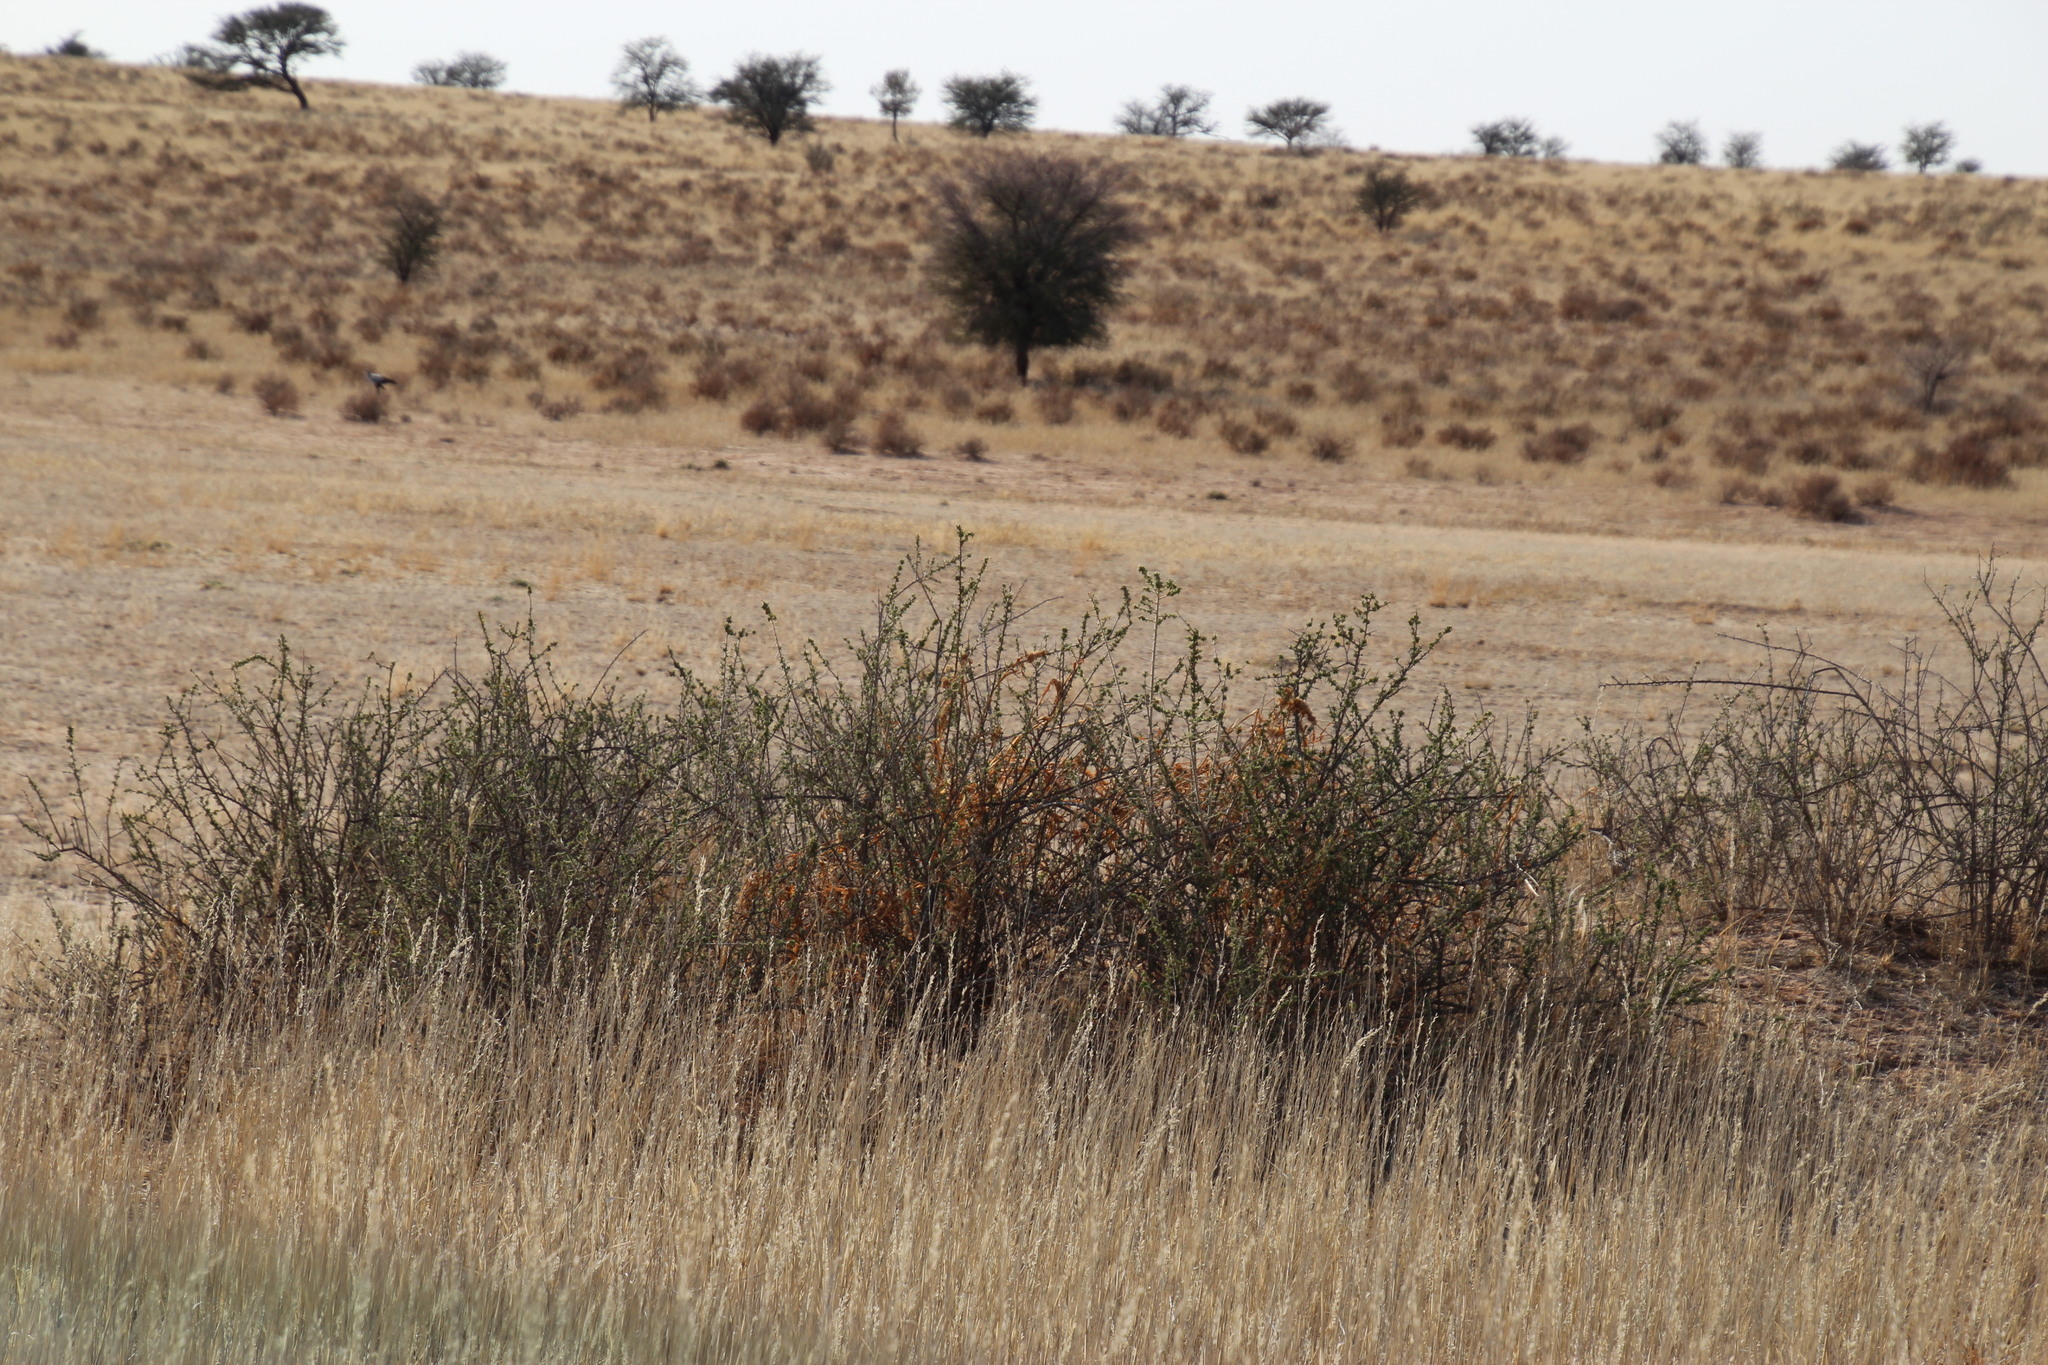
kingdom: Plantae
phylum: Tracheophyta
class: Magnoliopsida
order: Lamiales
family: Bignoniaceae
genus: Rhigozum
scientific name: Rhigozum trichotomum
